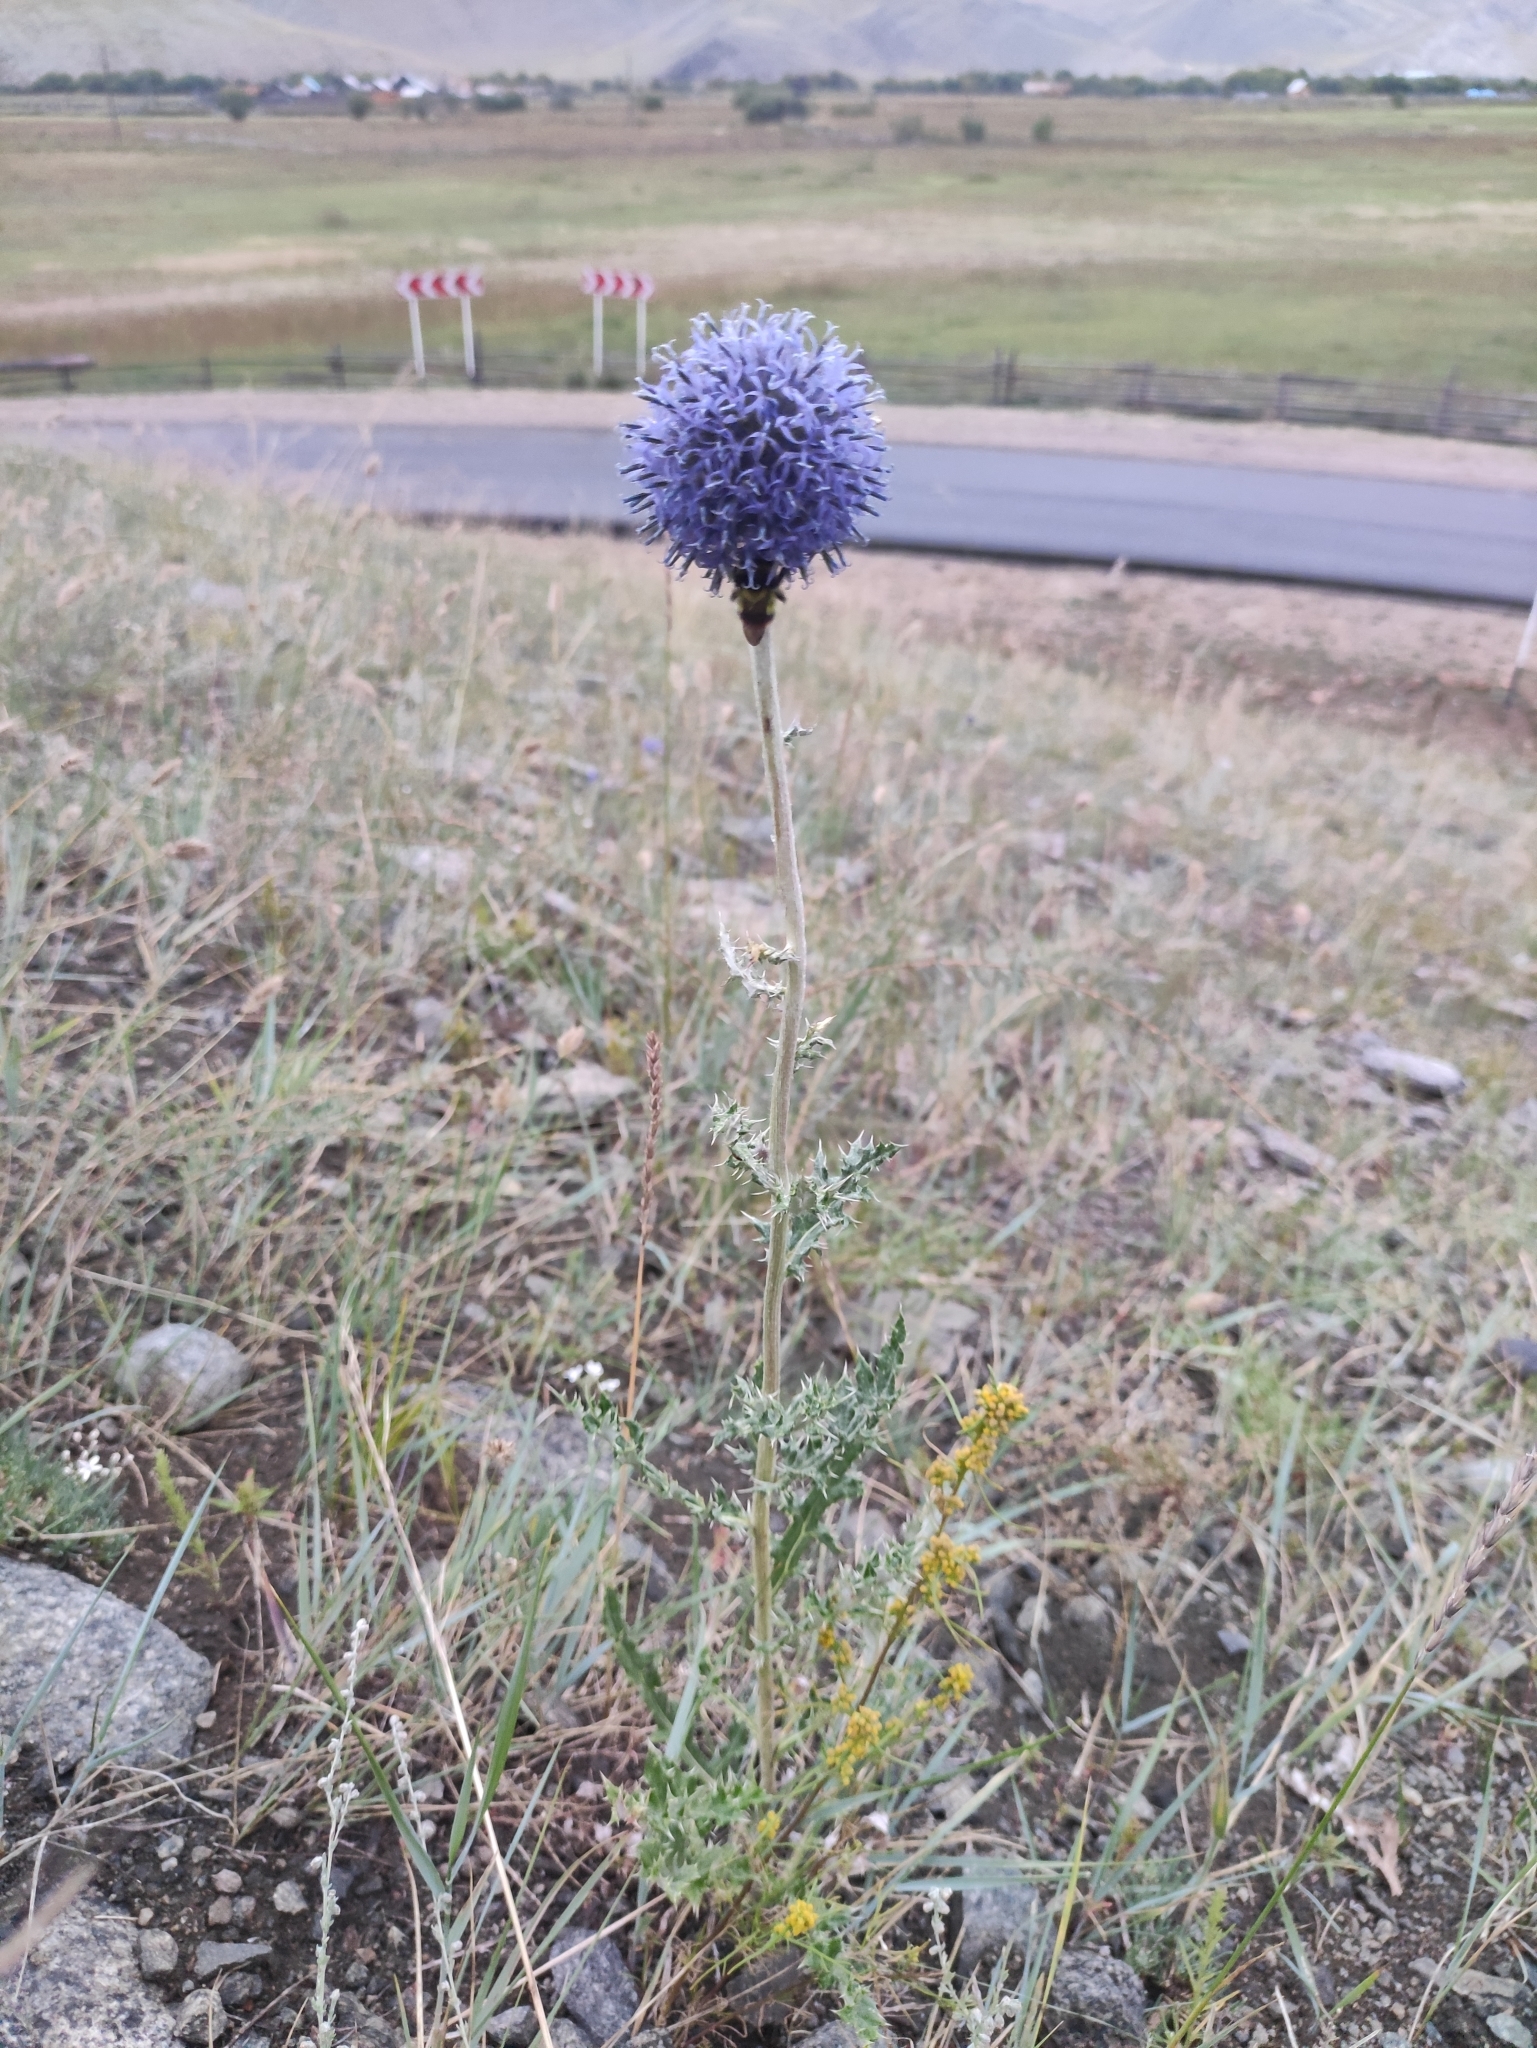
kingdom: Plantae
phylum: Tracheophyta
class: Magnoliopsida
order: Asterales
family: Asteraceae
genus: Echinops
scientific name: Echinops davuricus
